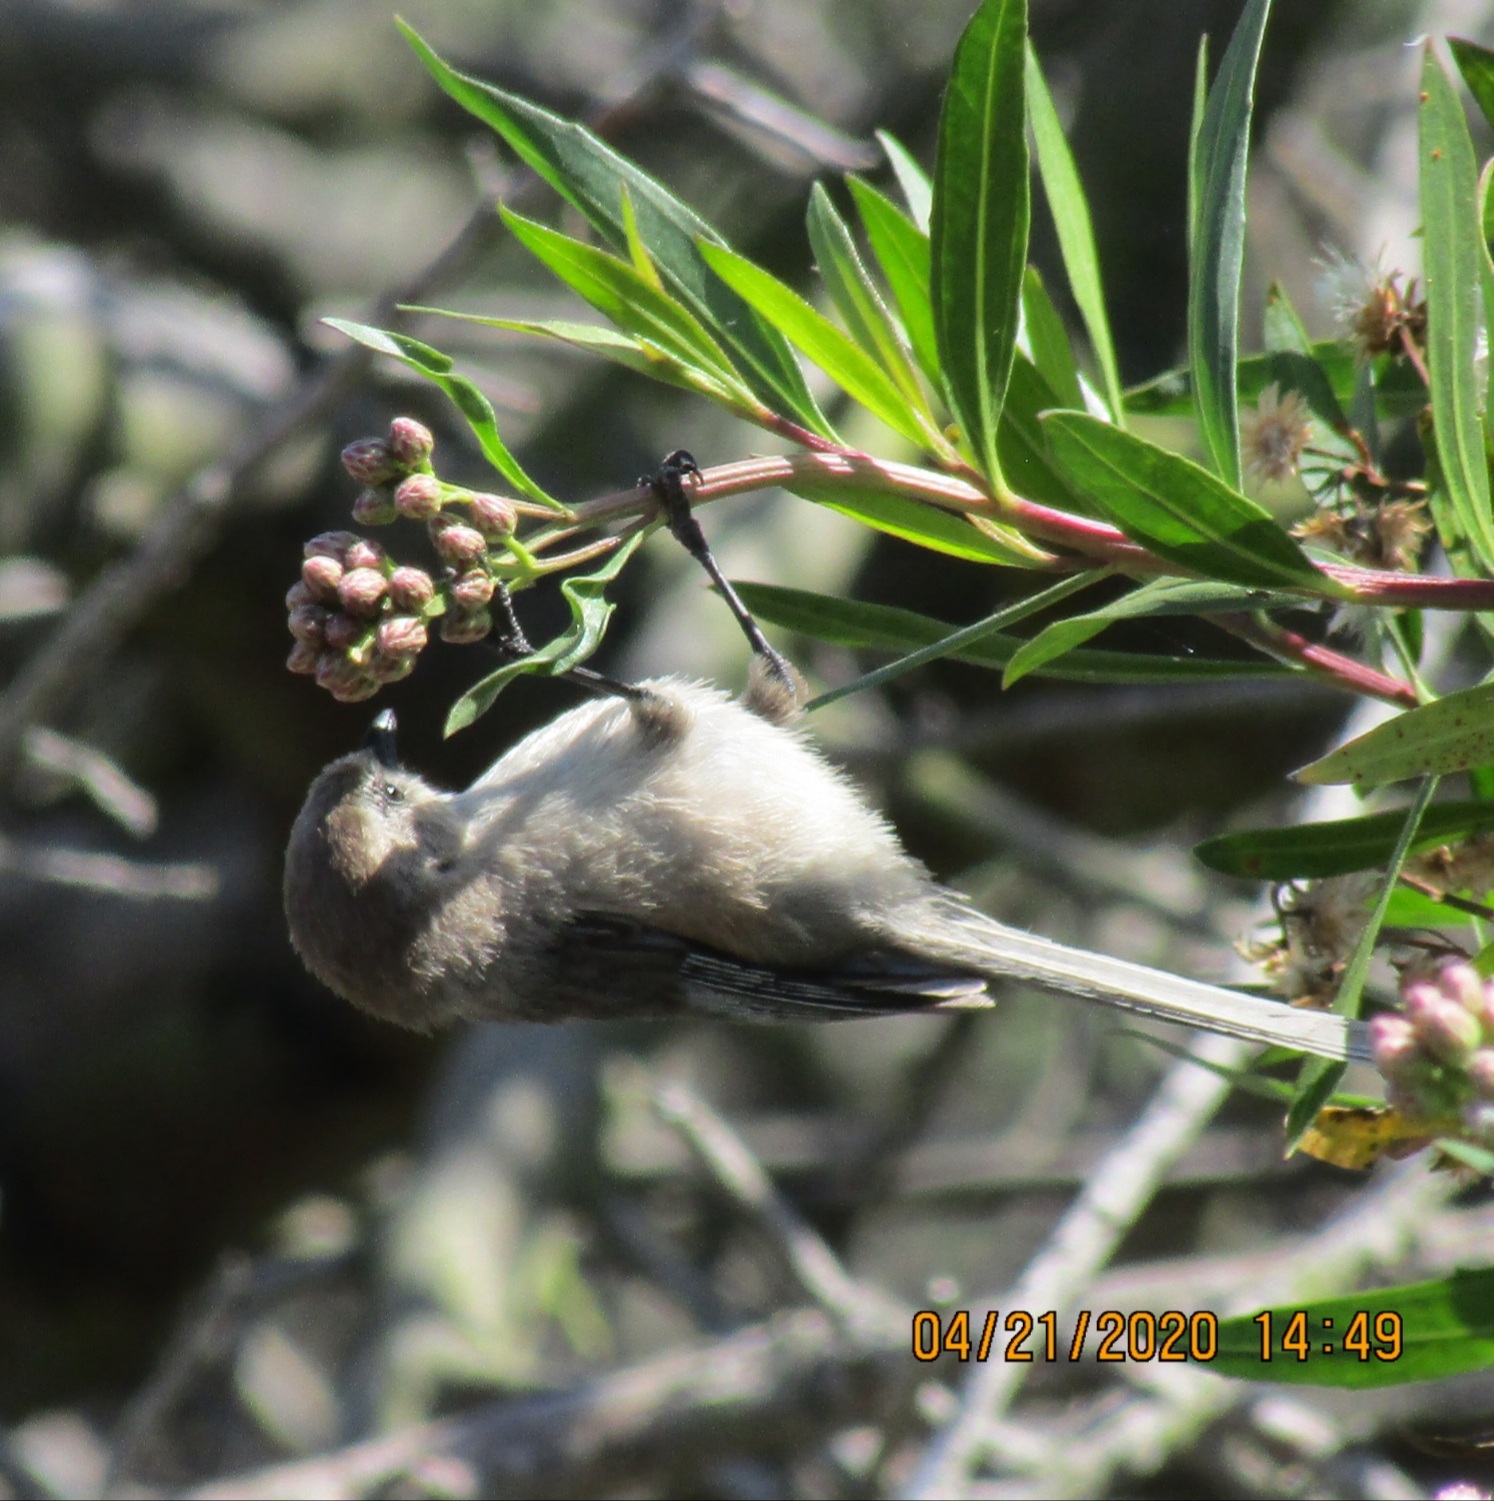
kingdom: Animalia
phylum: Chordata
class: Aves
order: Passeriformes
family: Aegithalidae
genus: Psaltriparus
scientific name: Psaltriparus minimus
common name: American bushtit
